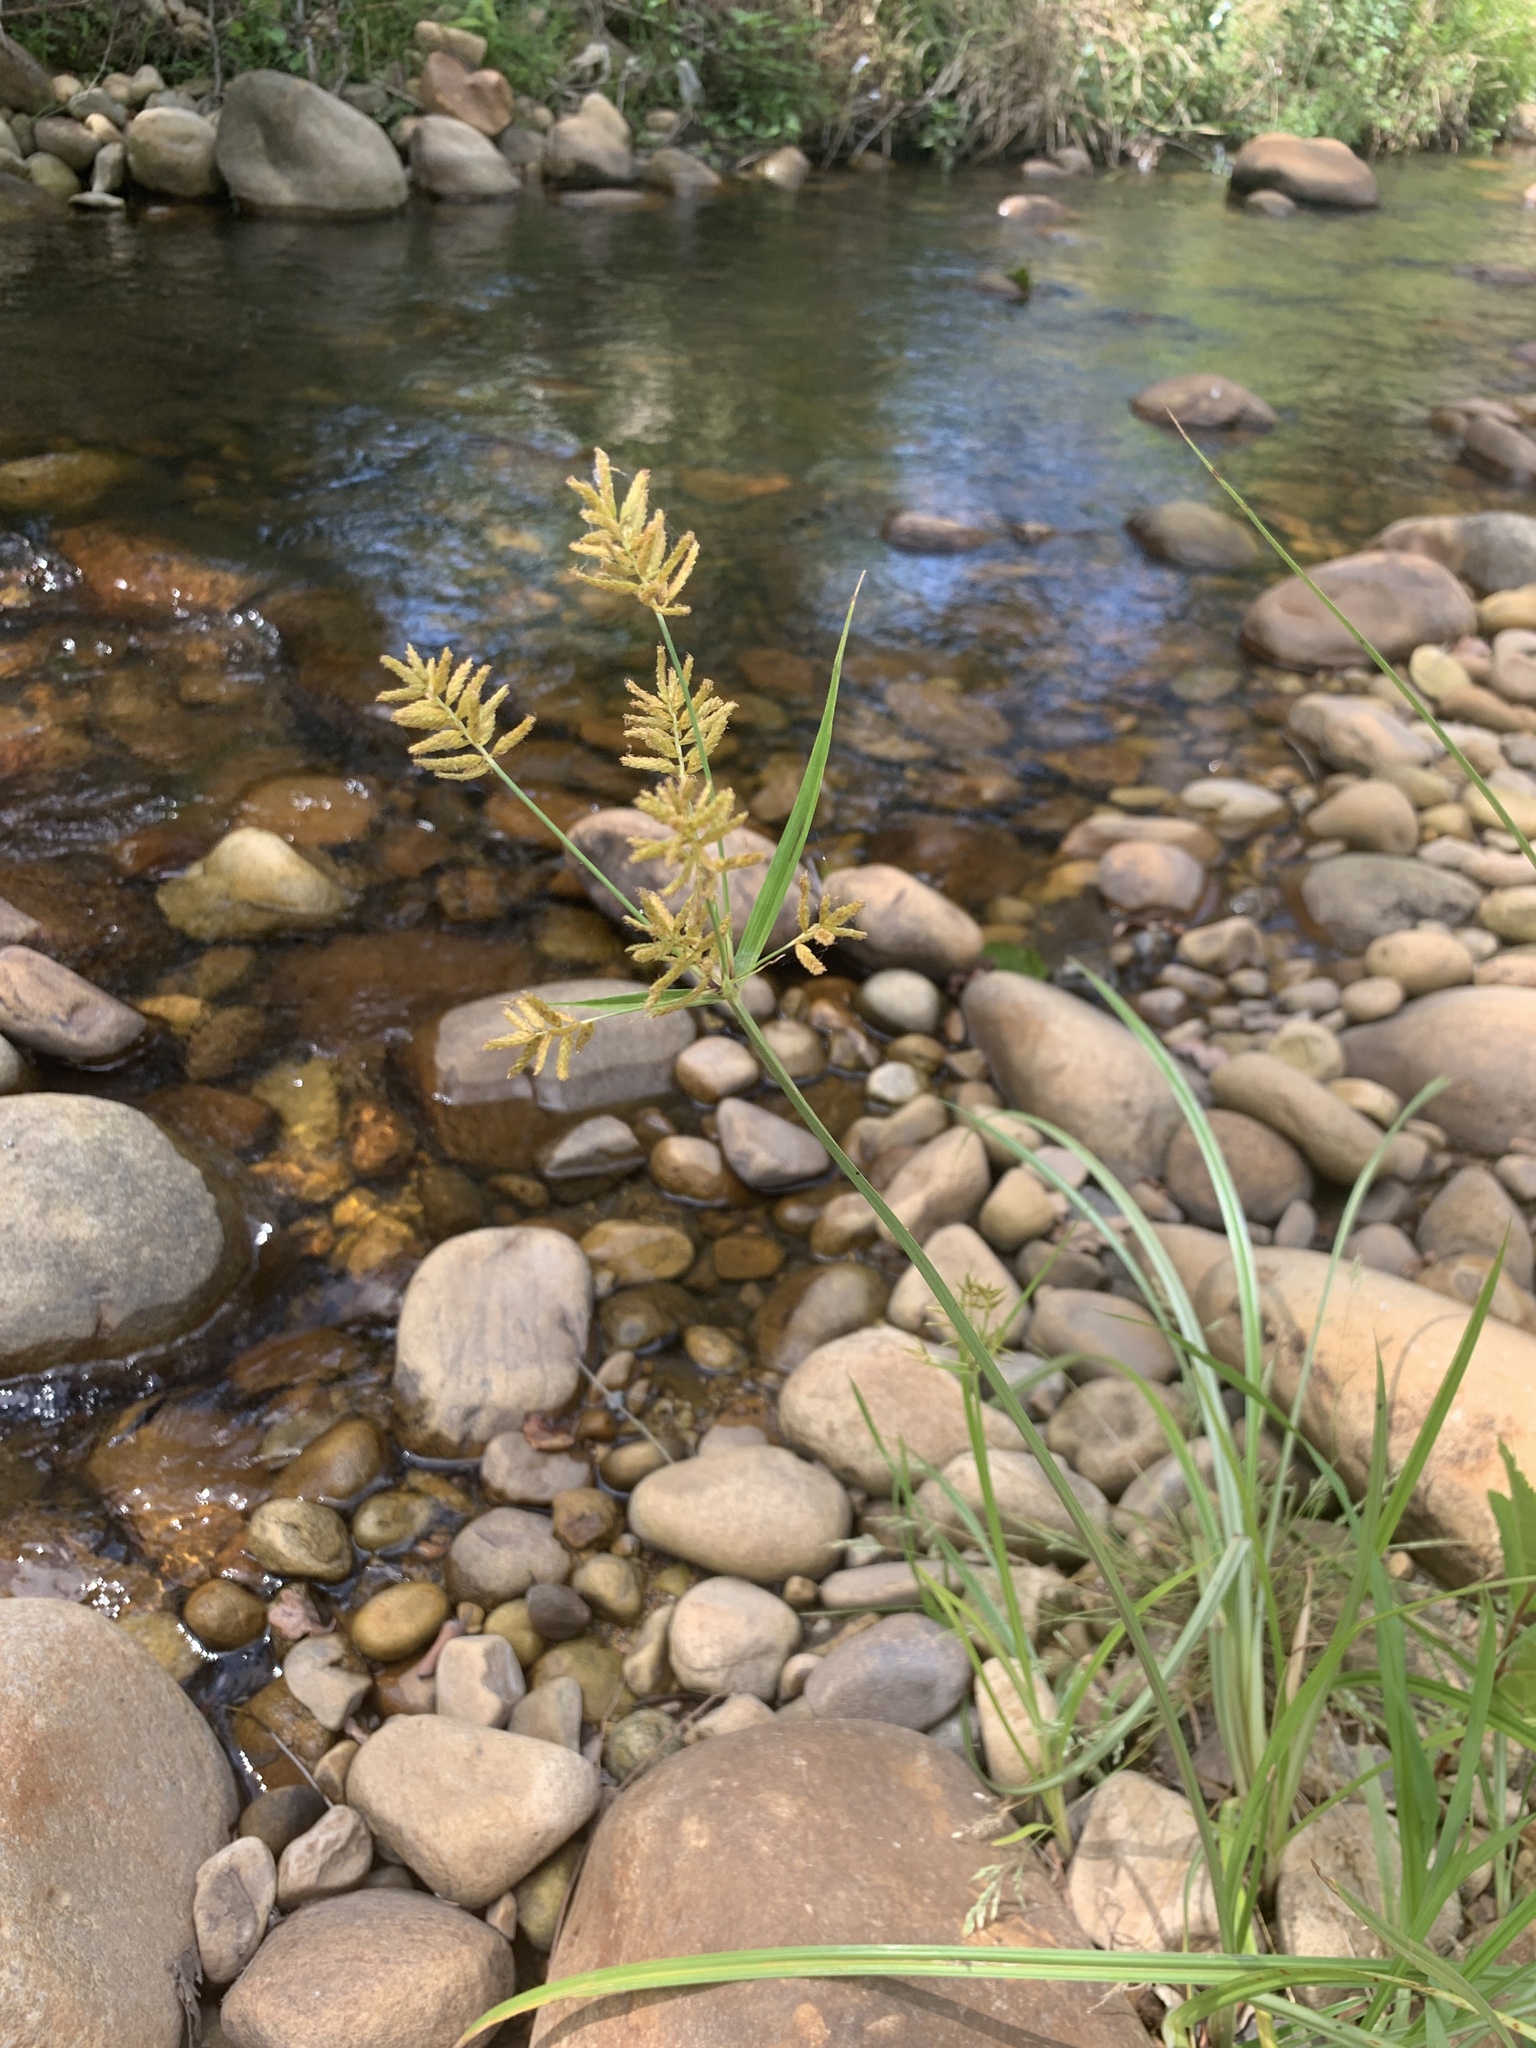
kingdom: Plantae
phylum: Tracheophyta
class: Liliopsida
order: Poales
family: Cyperaceae
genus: Cyperus
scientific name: Cyperus esculentus
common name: Yellow nutsedge
